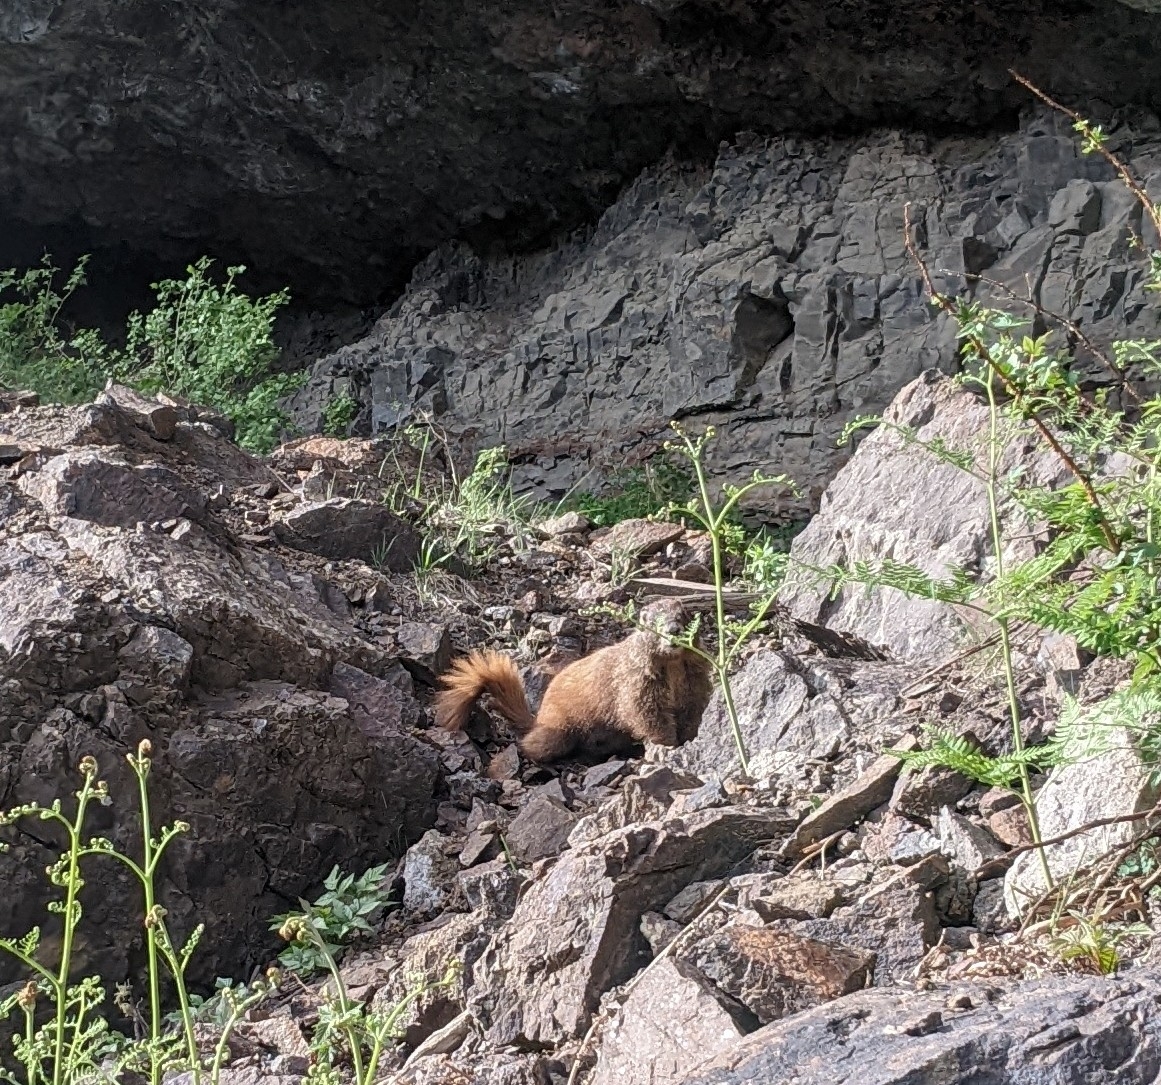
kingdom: Animalia
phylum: Chordata
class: Mammalia
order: Rodentia
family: Sciuridae
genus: Marmota
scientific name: Marmota flaviventris
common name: Yellow-bellied marmot
